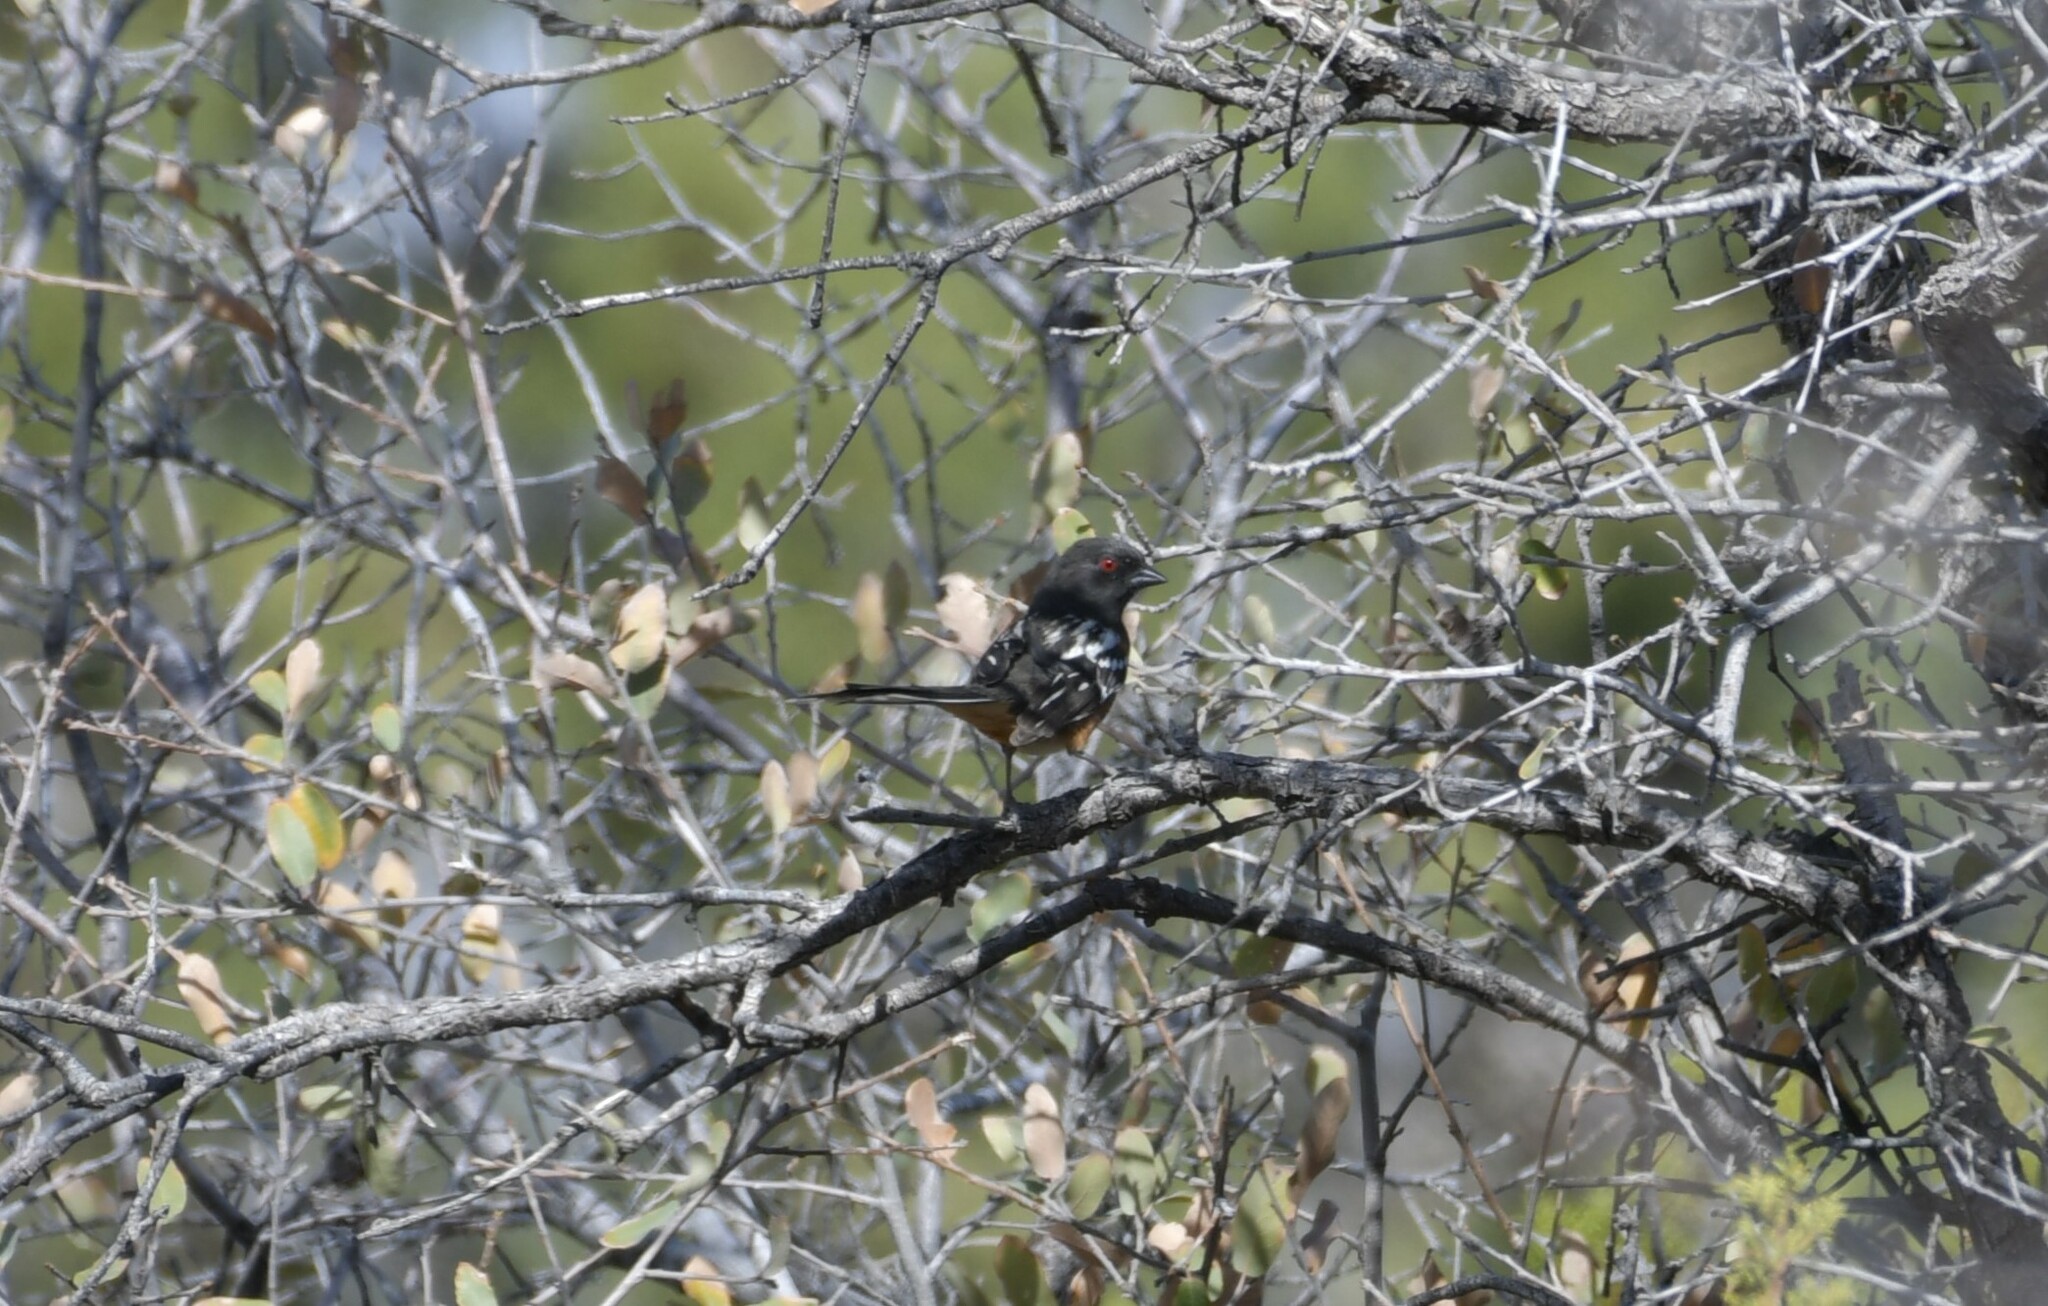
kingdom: Animalia
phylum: Chordata
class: Aves
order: Passeriformes
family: Passerellidae
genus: Pipilo
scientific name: Pipilo maculatus
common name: Spotted towhee
